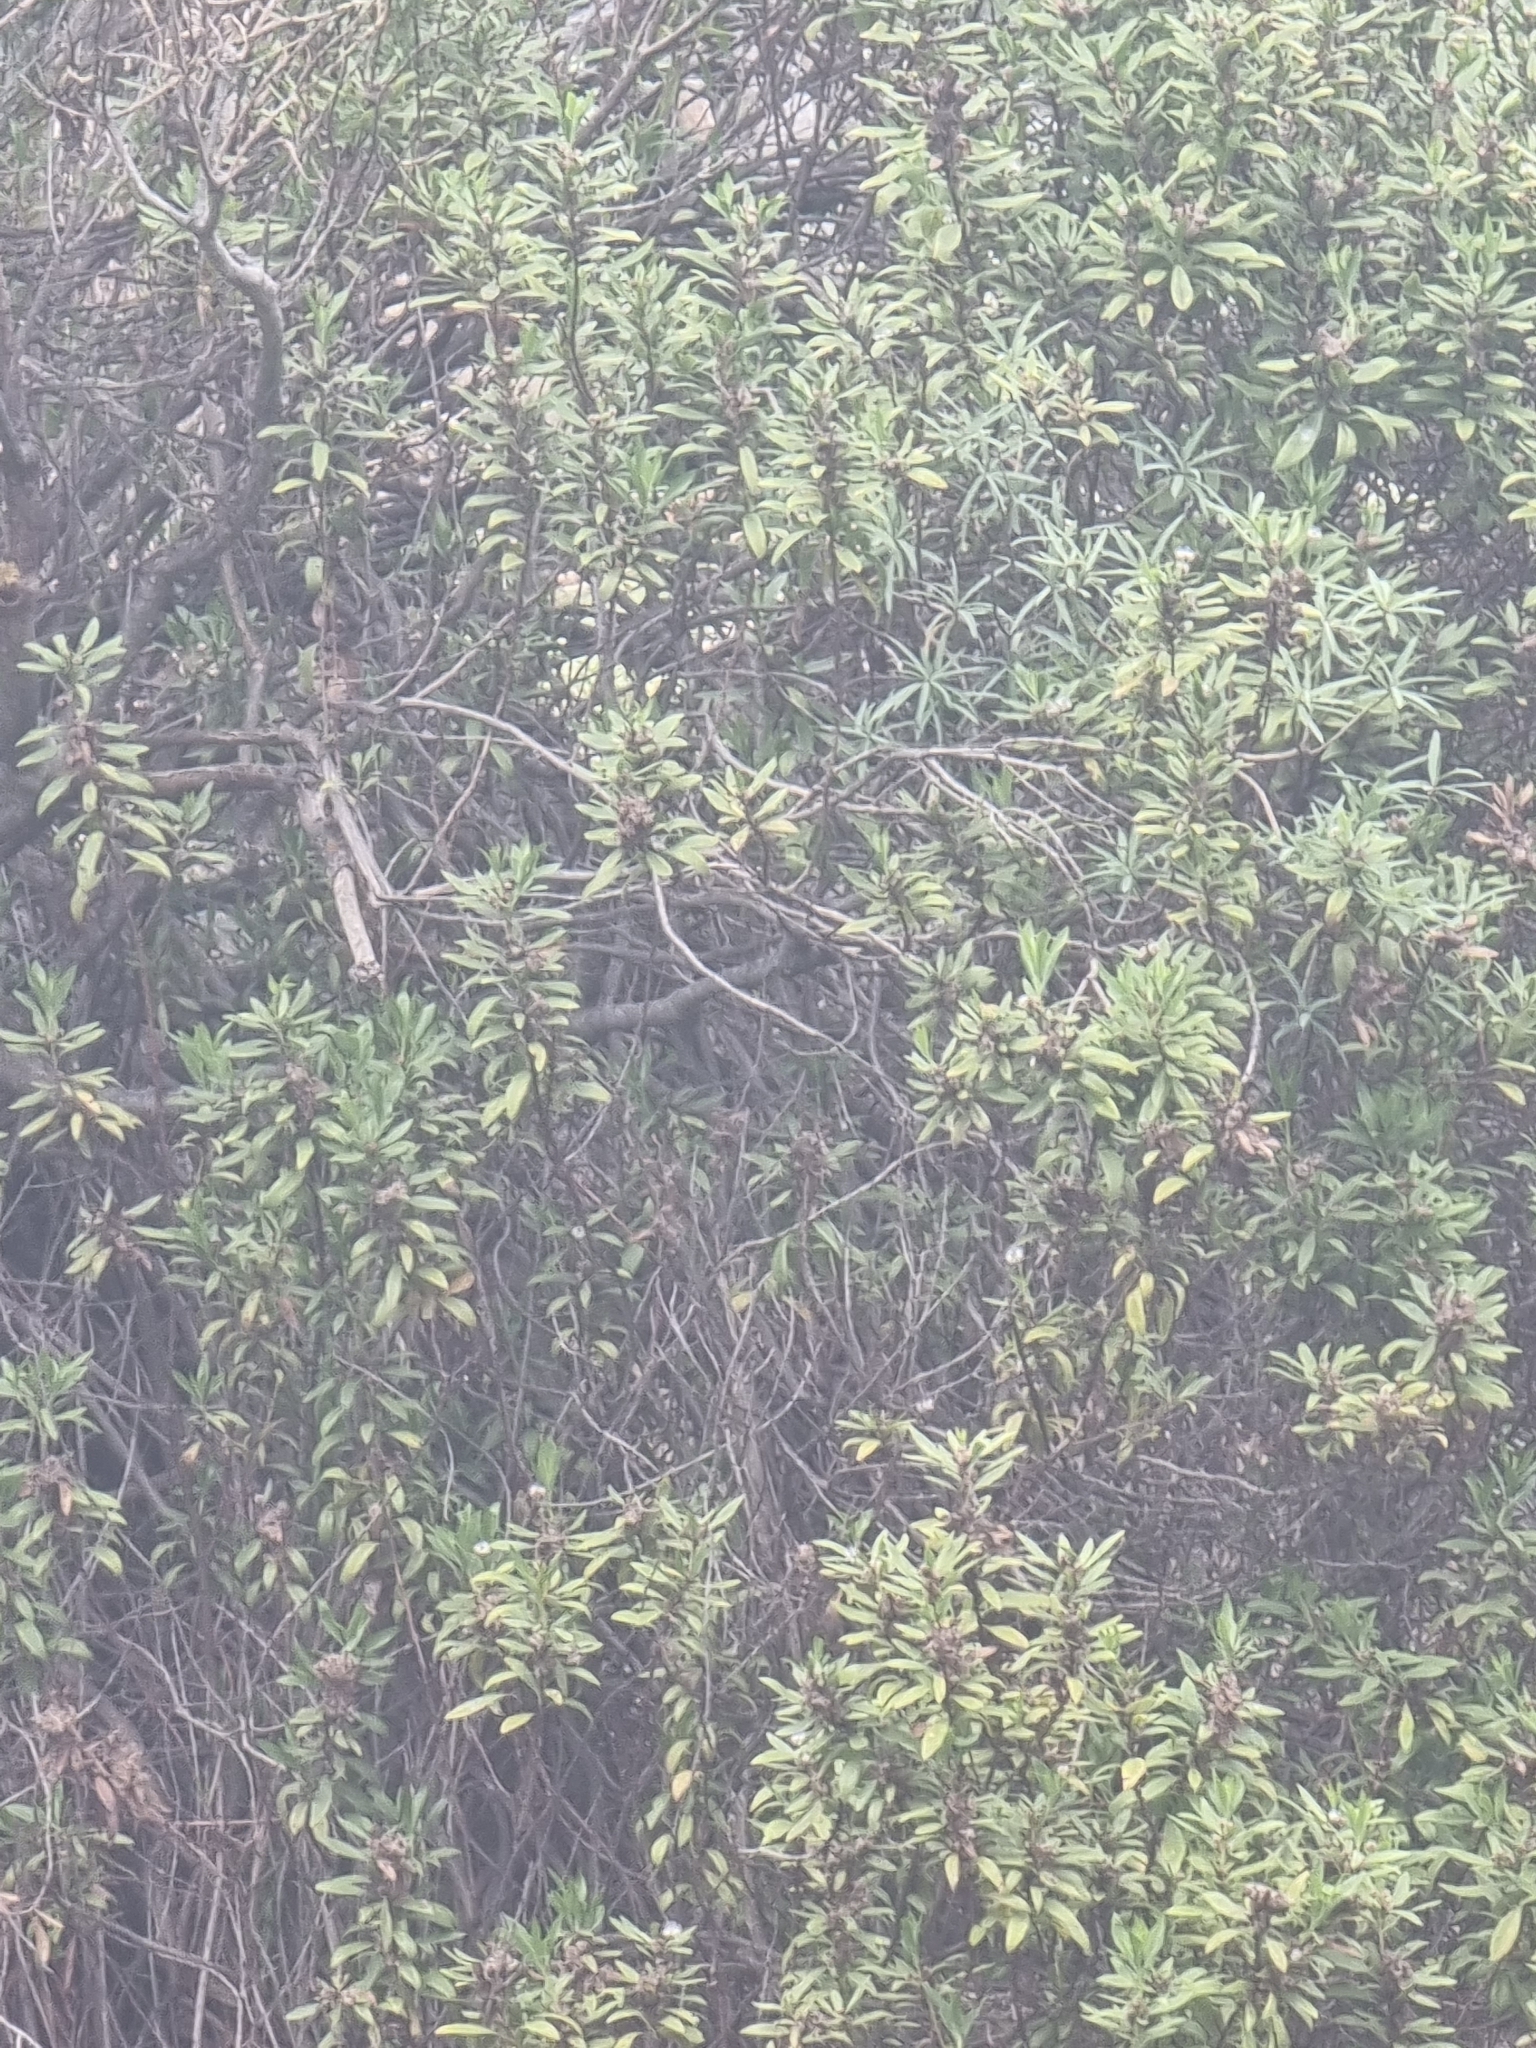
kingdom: Plantae
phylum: Tracheophyta
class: Magnoliopsida
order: Lamiales
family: Plantaginaceae
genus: Globularia
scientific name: Globularia salicina
